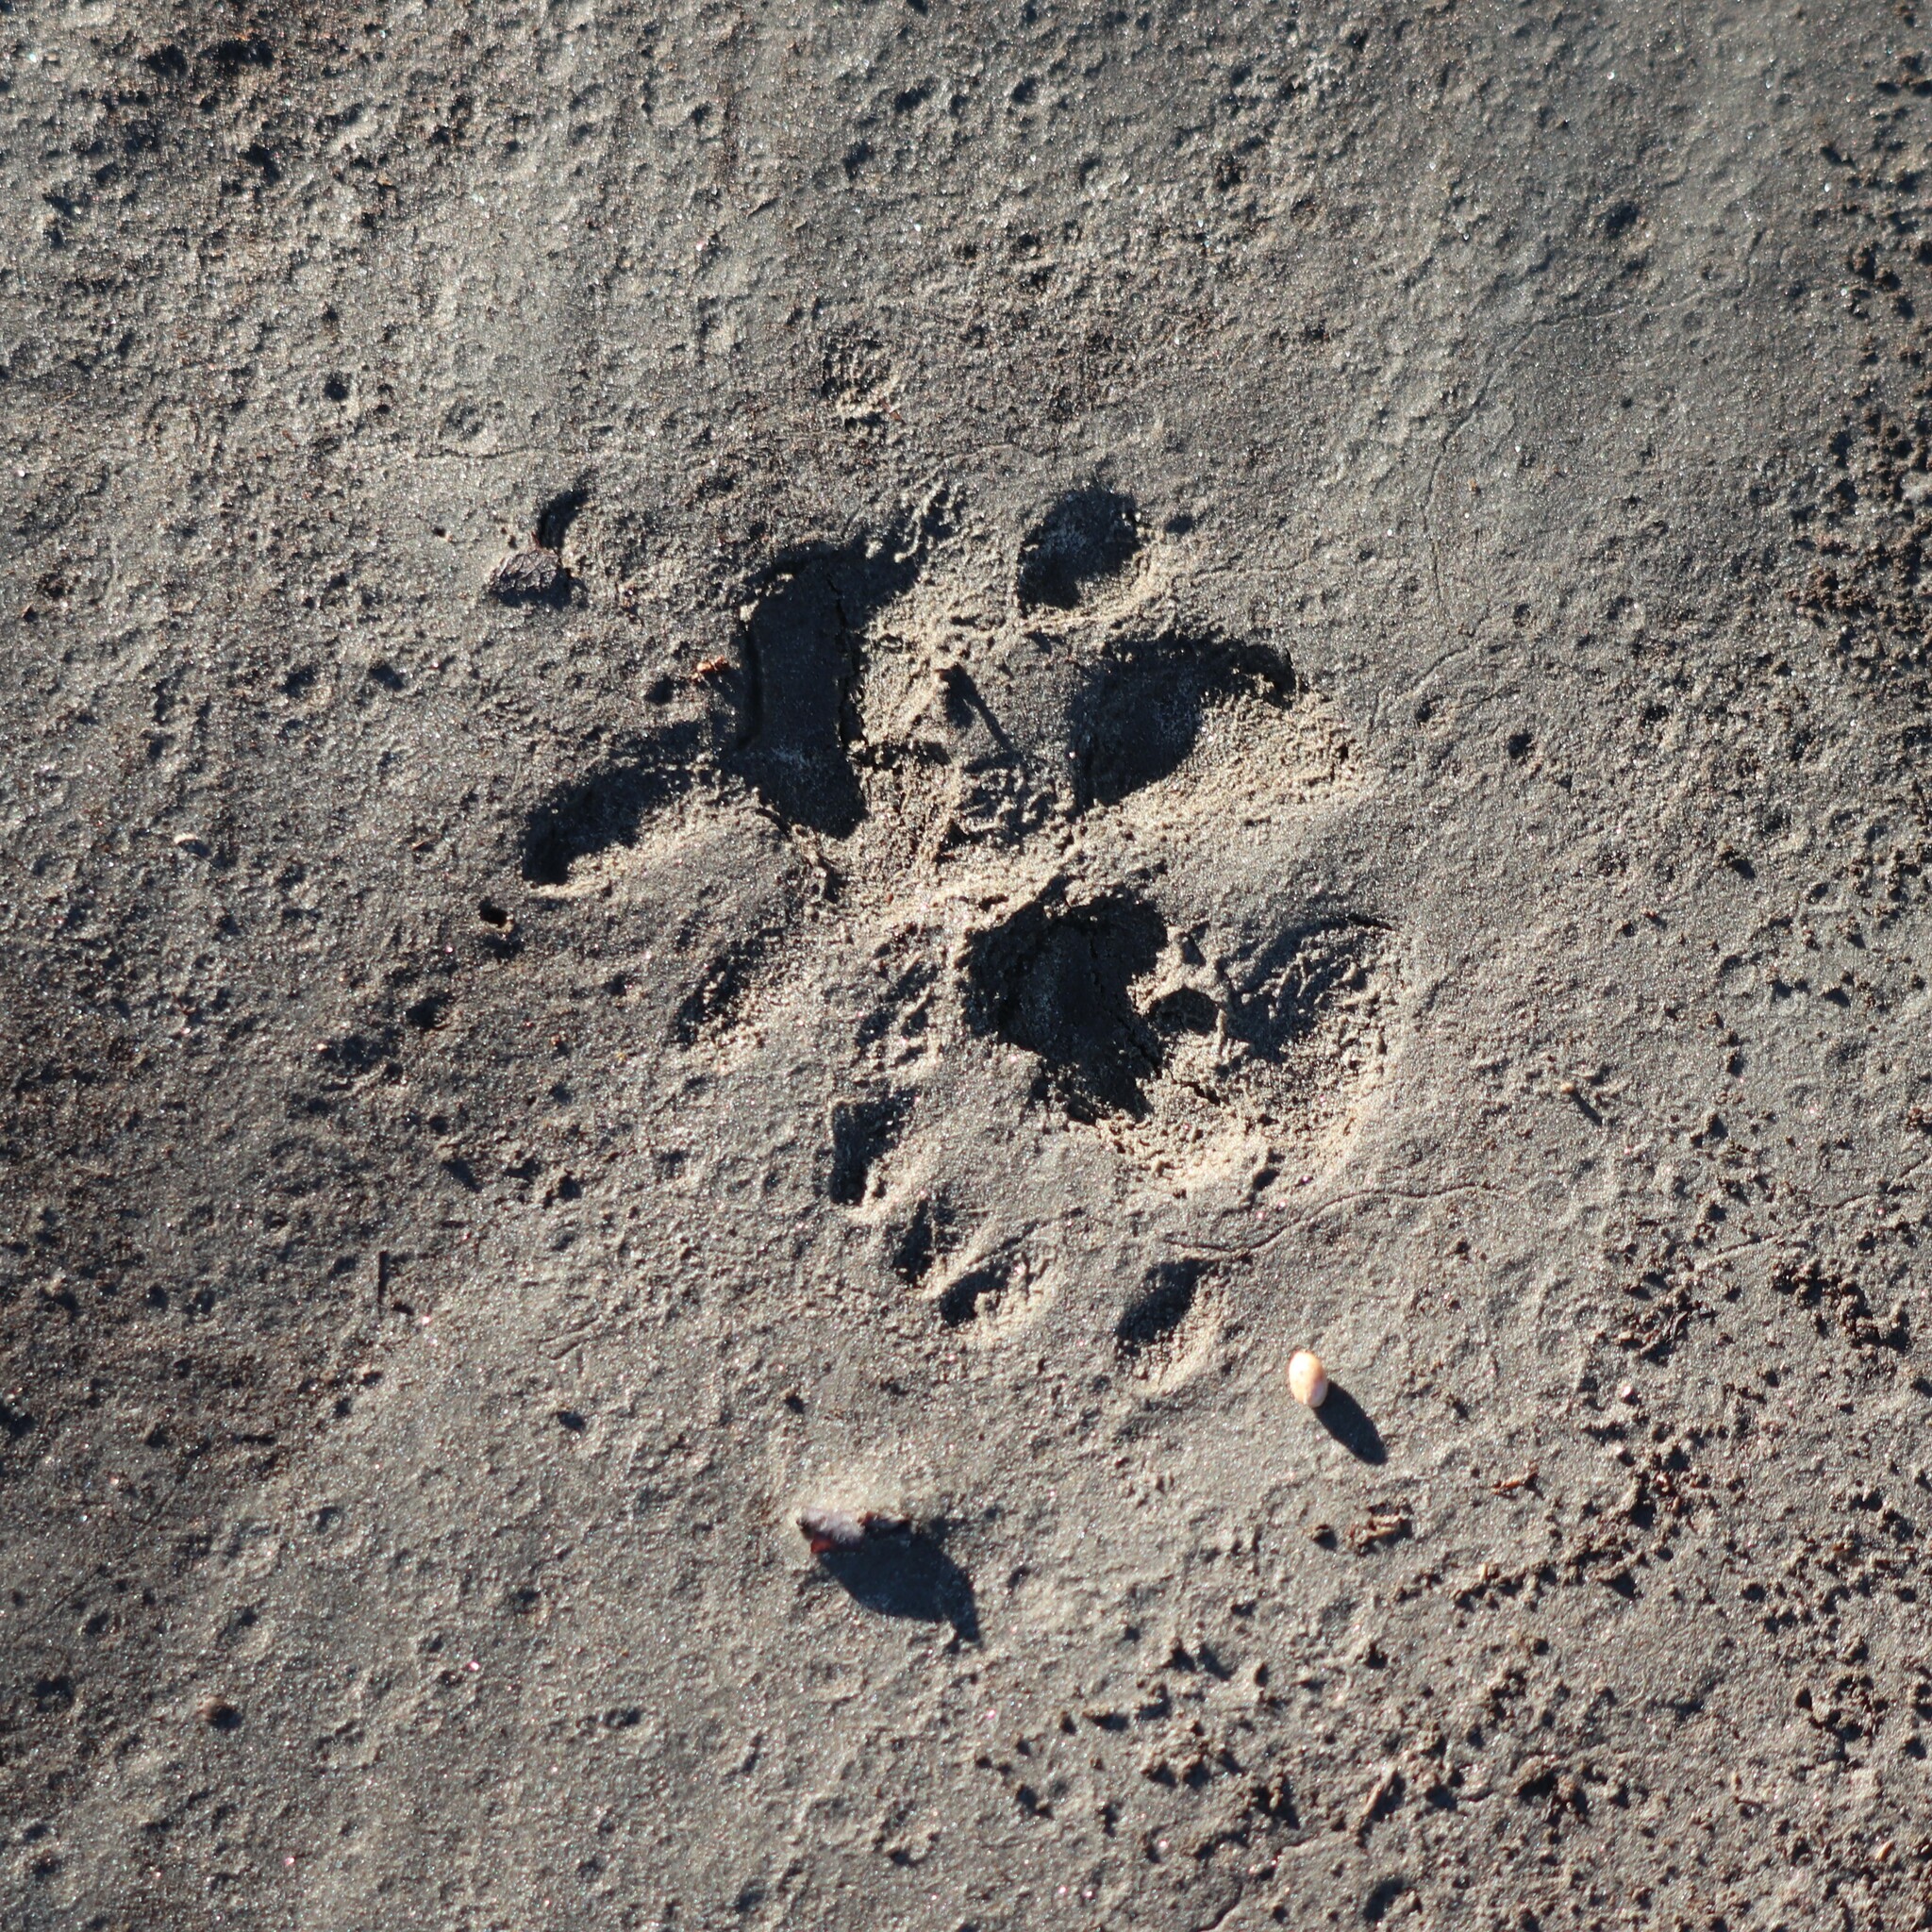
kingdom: Animalia
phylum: Chordata
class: Mammalia
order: Didelphimorphia
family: Didelphidae
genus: Didelphis
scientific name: Didelphis virginiana
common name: Virginia opossum
